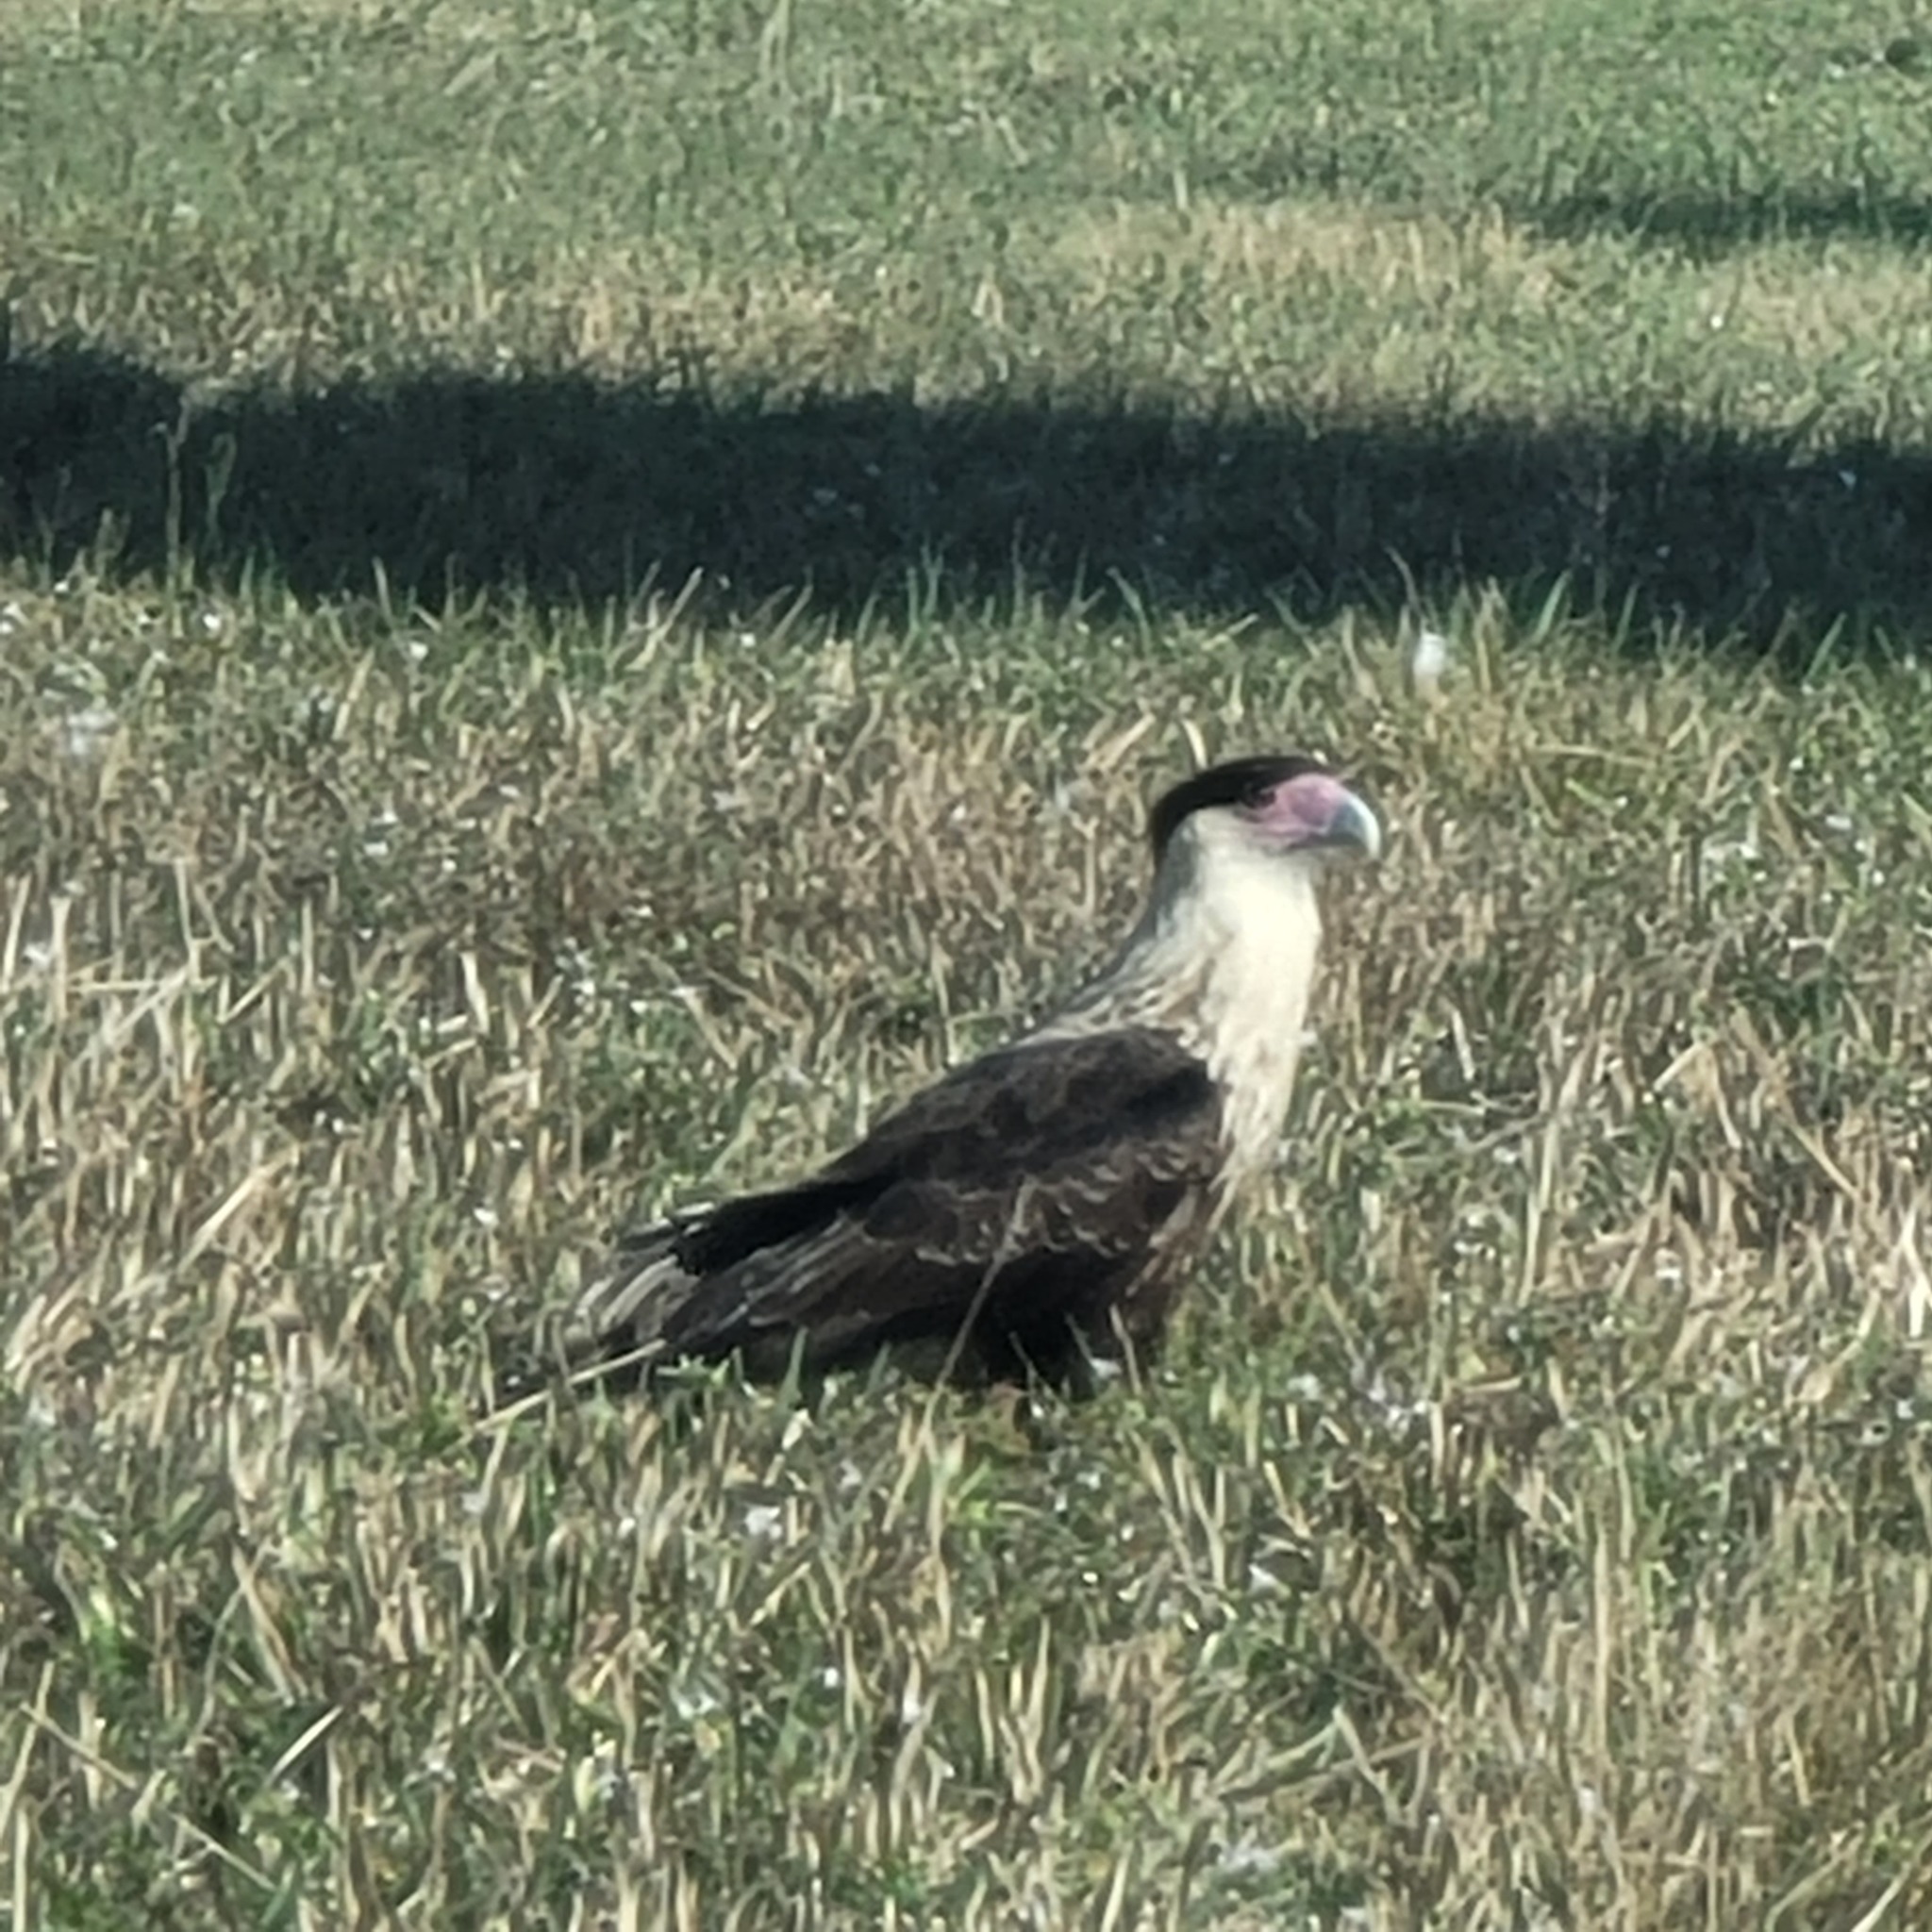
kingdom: Animalia
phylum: Chordata
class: Aves
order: Falconiformes
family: Falconidae
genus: Caracara
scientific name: Caracara plancus
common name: Southern caracara
